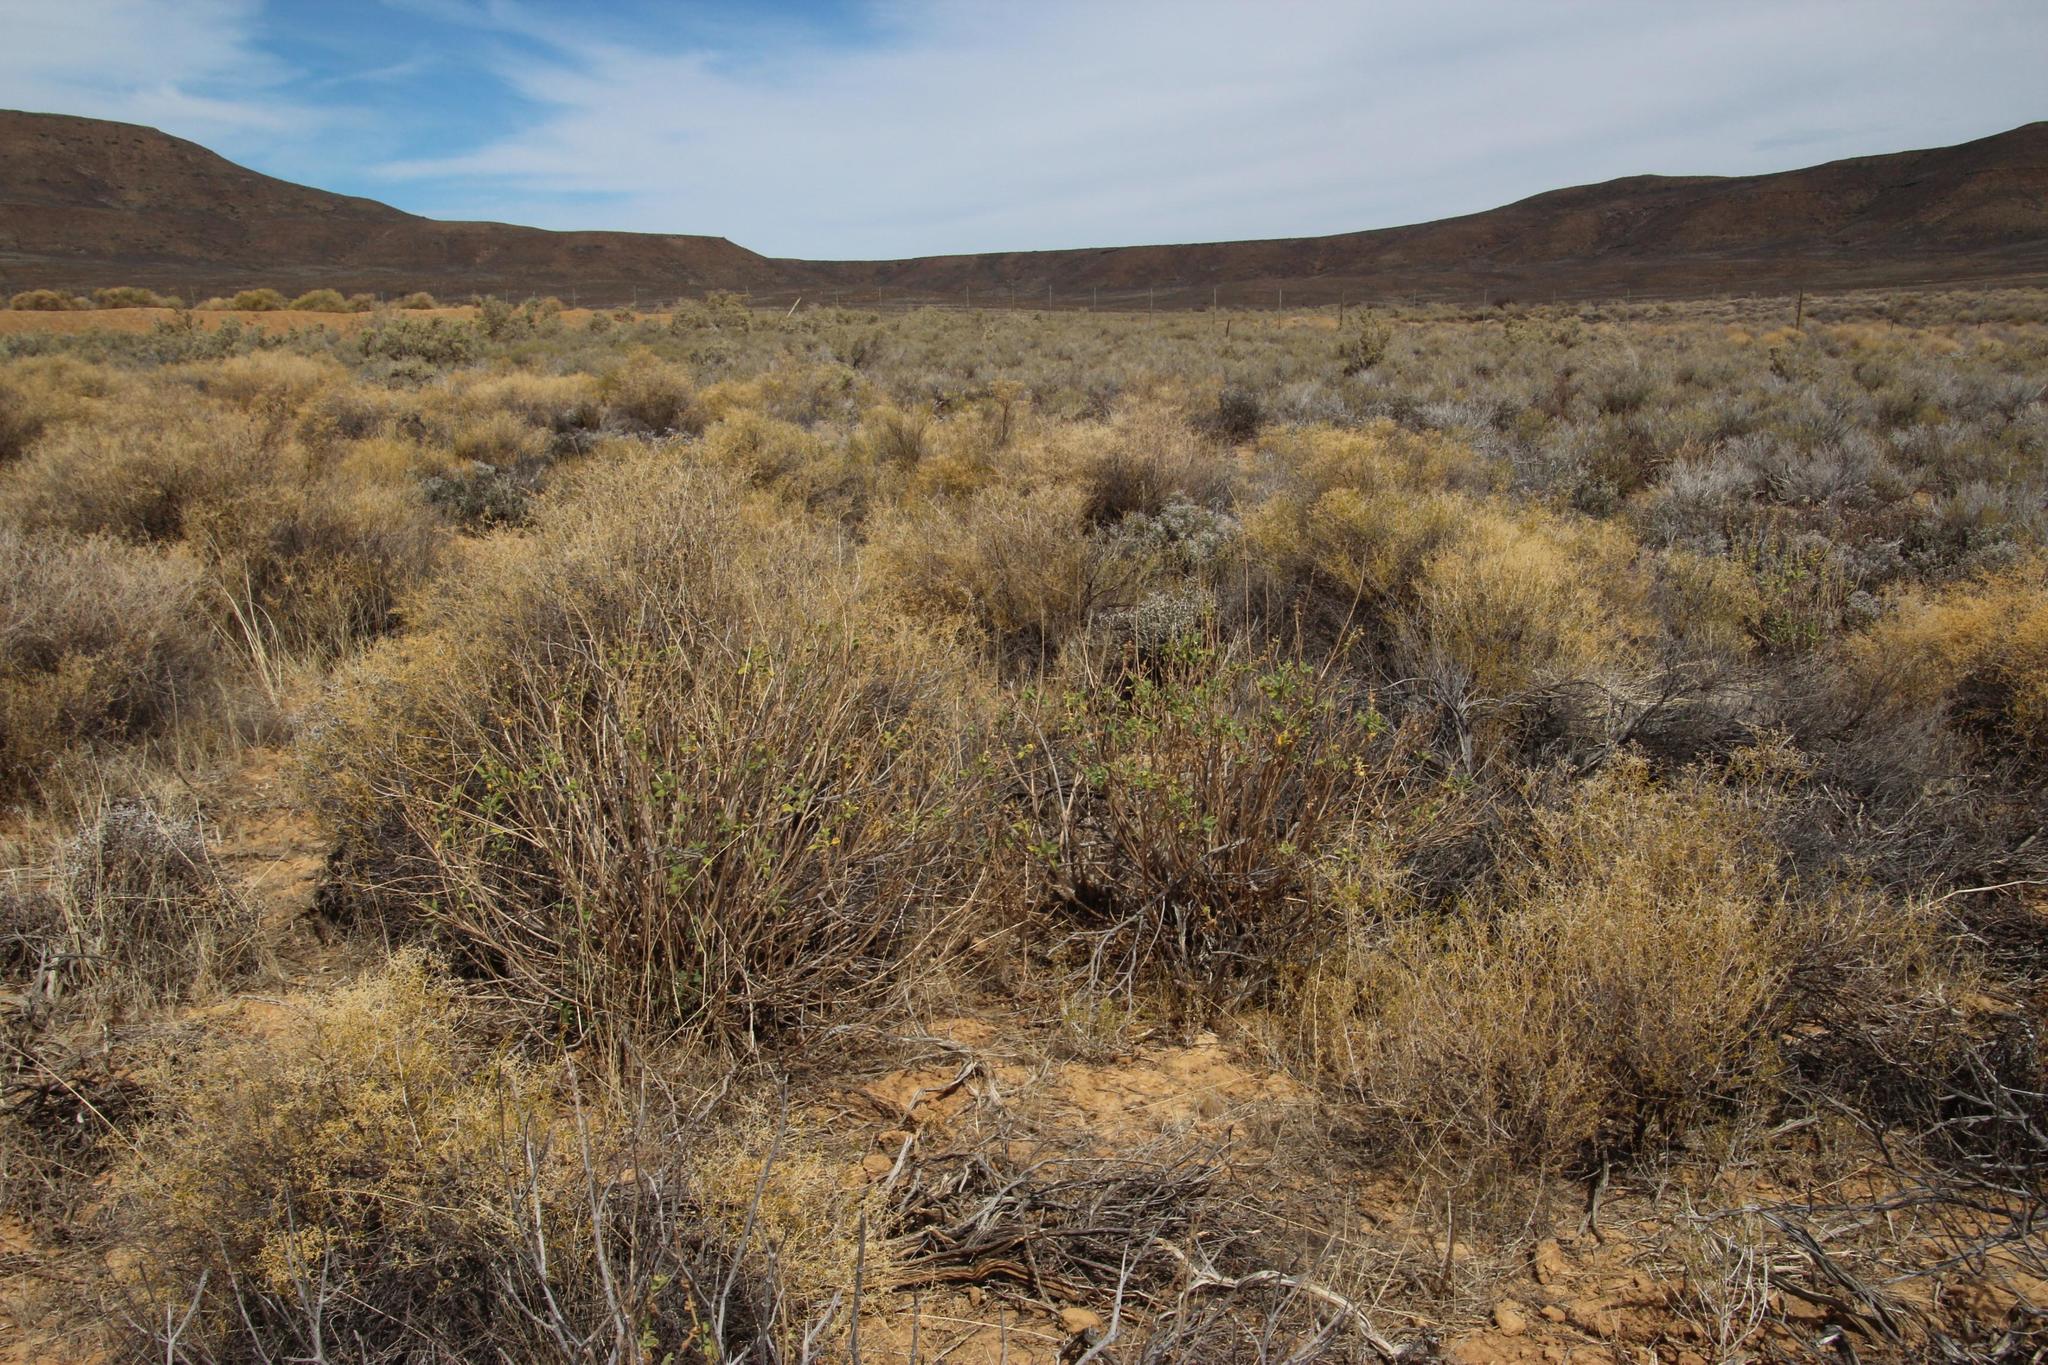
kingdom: Plantae
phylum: Tracheophyta
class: Magnoliopsida
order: Lamiales
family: Lamiaceae
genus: Salvia
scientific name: Salvia disermas
